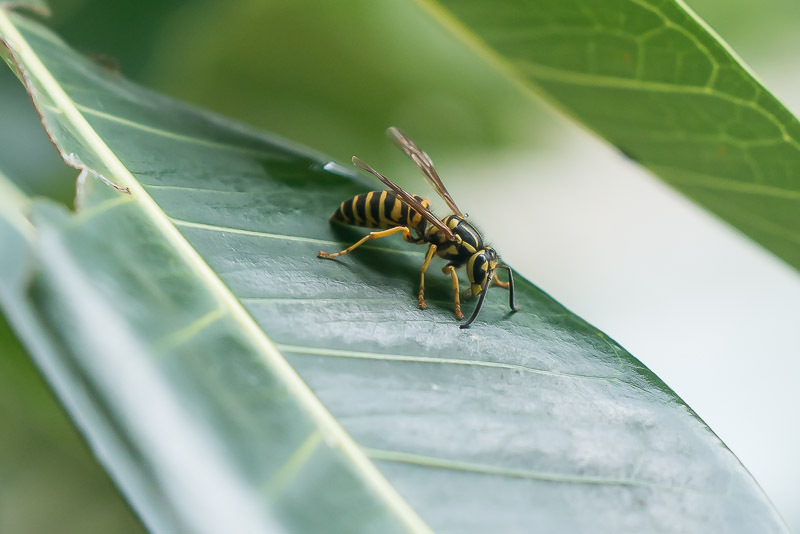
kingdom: Animalia
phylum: Arthropoda
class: Insecta
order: Hymenoptera
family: Vespidae
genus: Vespula
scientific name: Vespula squamosa
